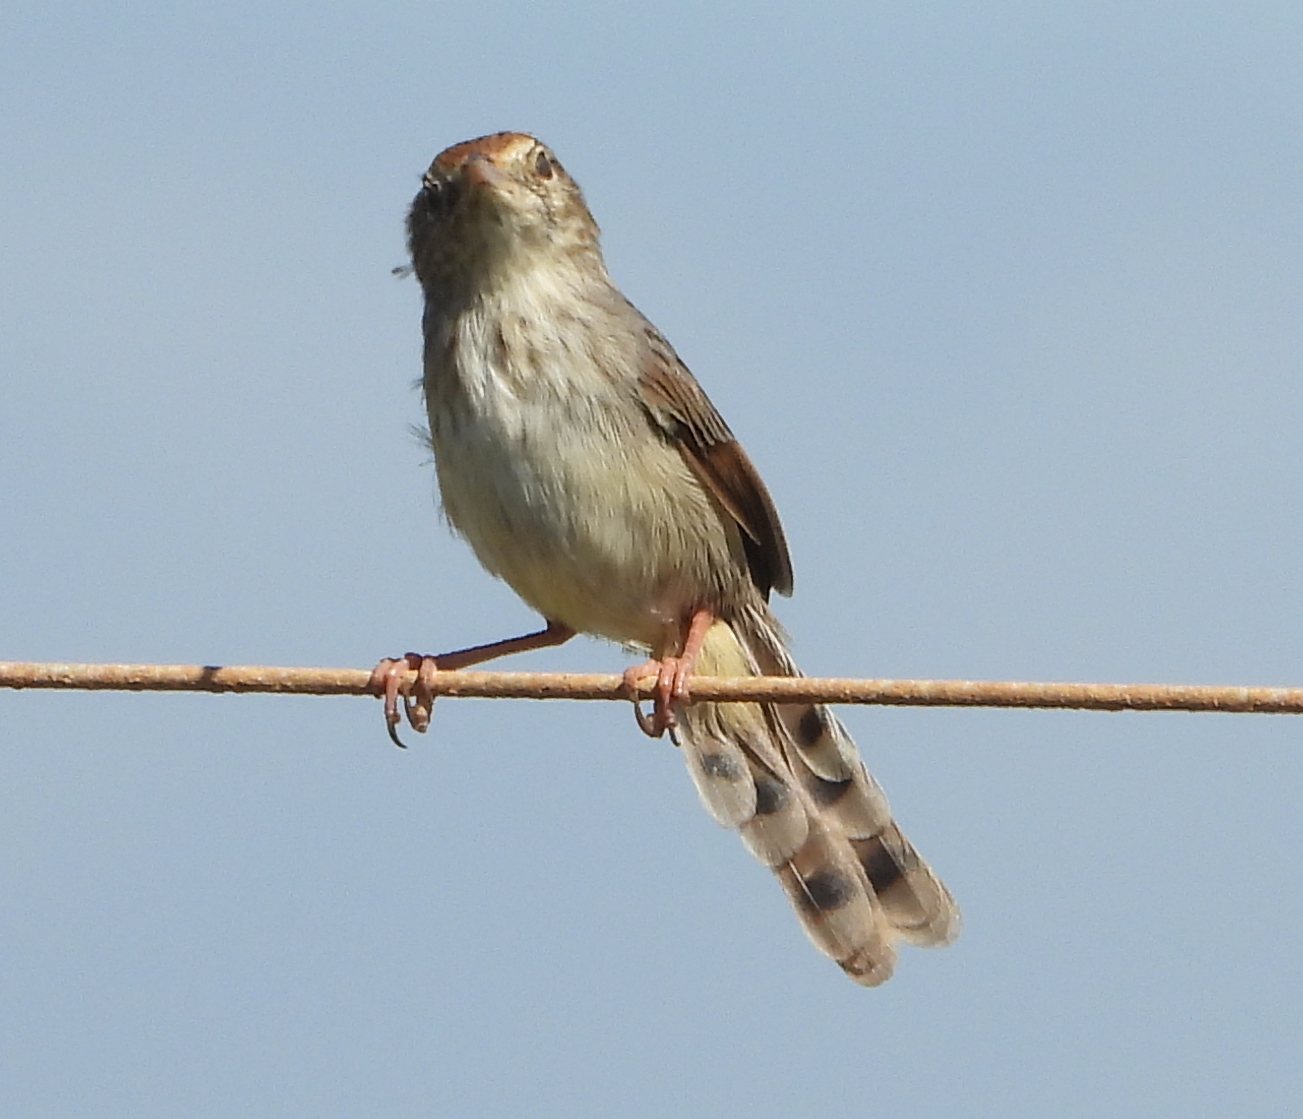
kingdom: Animalia
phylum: Chordata
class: Aves
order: Passeriformes
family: Cisticolidae
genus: Cisticola
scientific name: Cisticola subruficapilla
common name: Grey-backed cisticola
